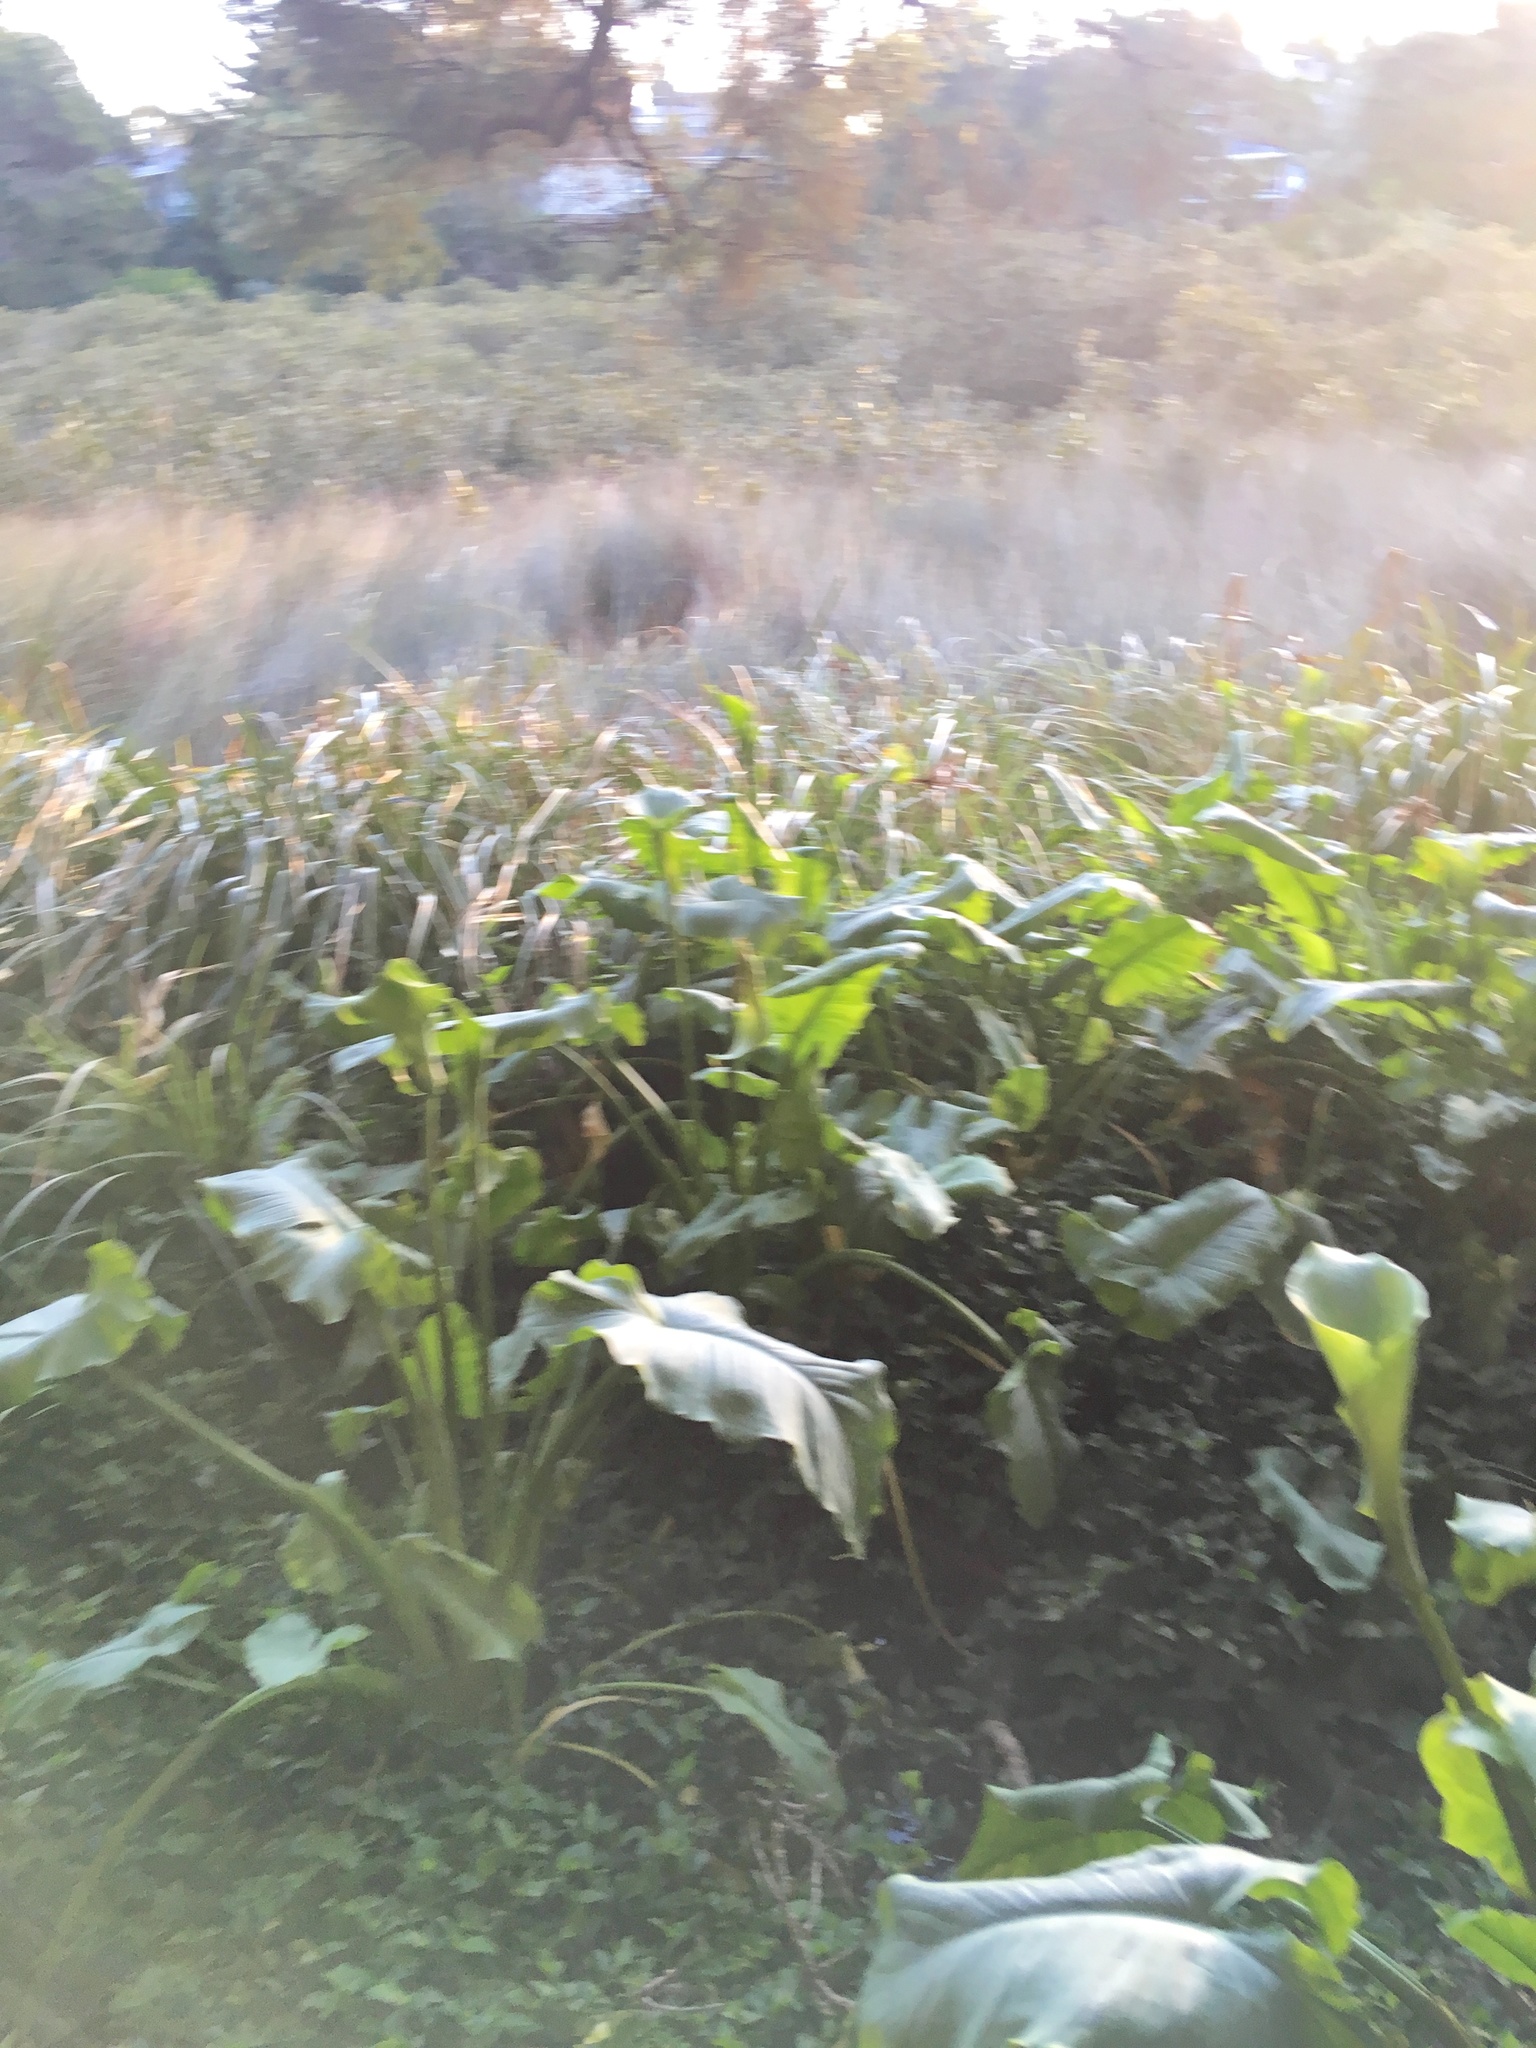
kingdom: Plantae
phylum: Tracheophyta
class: Liliopsida
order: Alismatales
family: Araceae
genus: Zantedeschia
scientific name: Zantedeschia aethiopica
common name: Altar-lily
